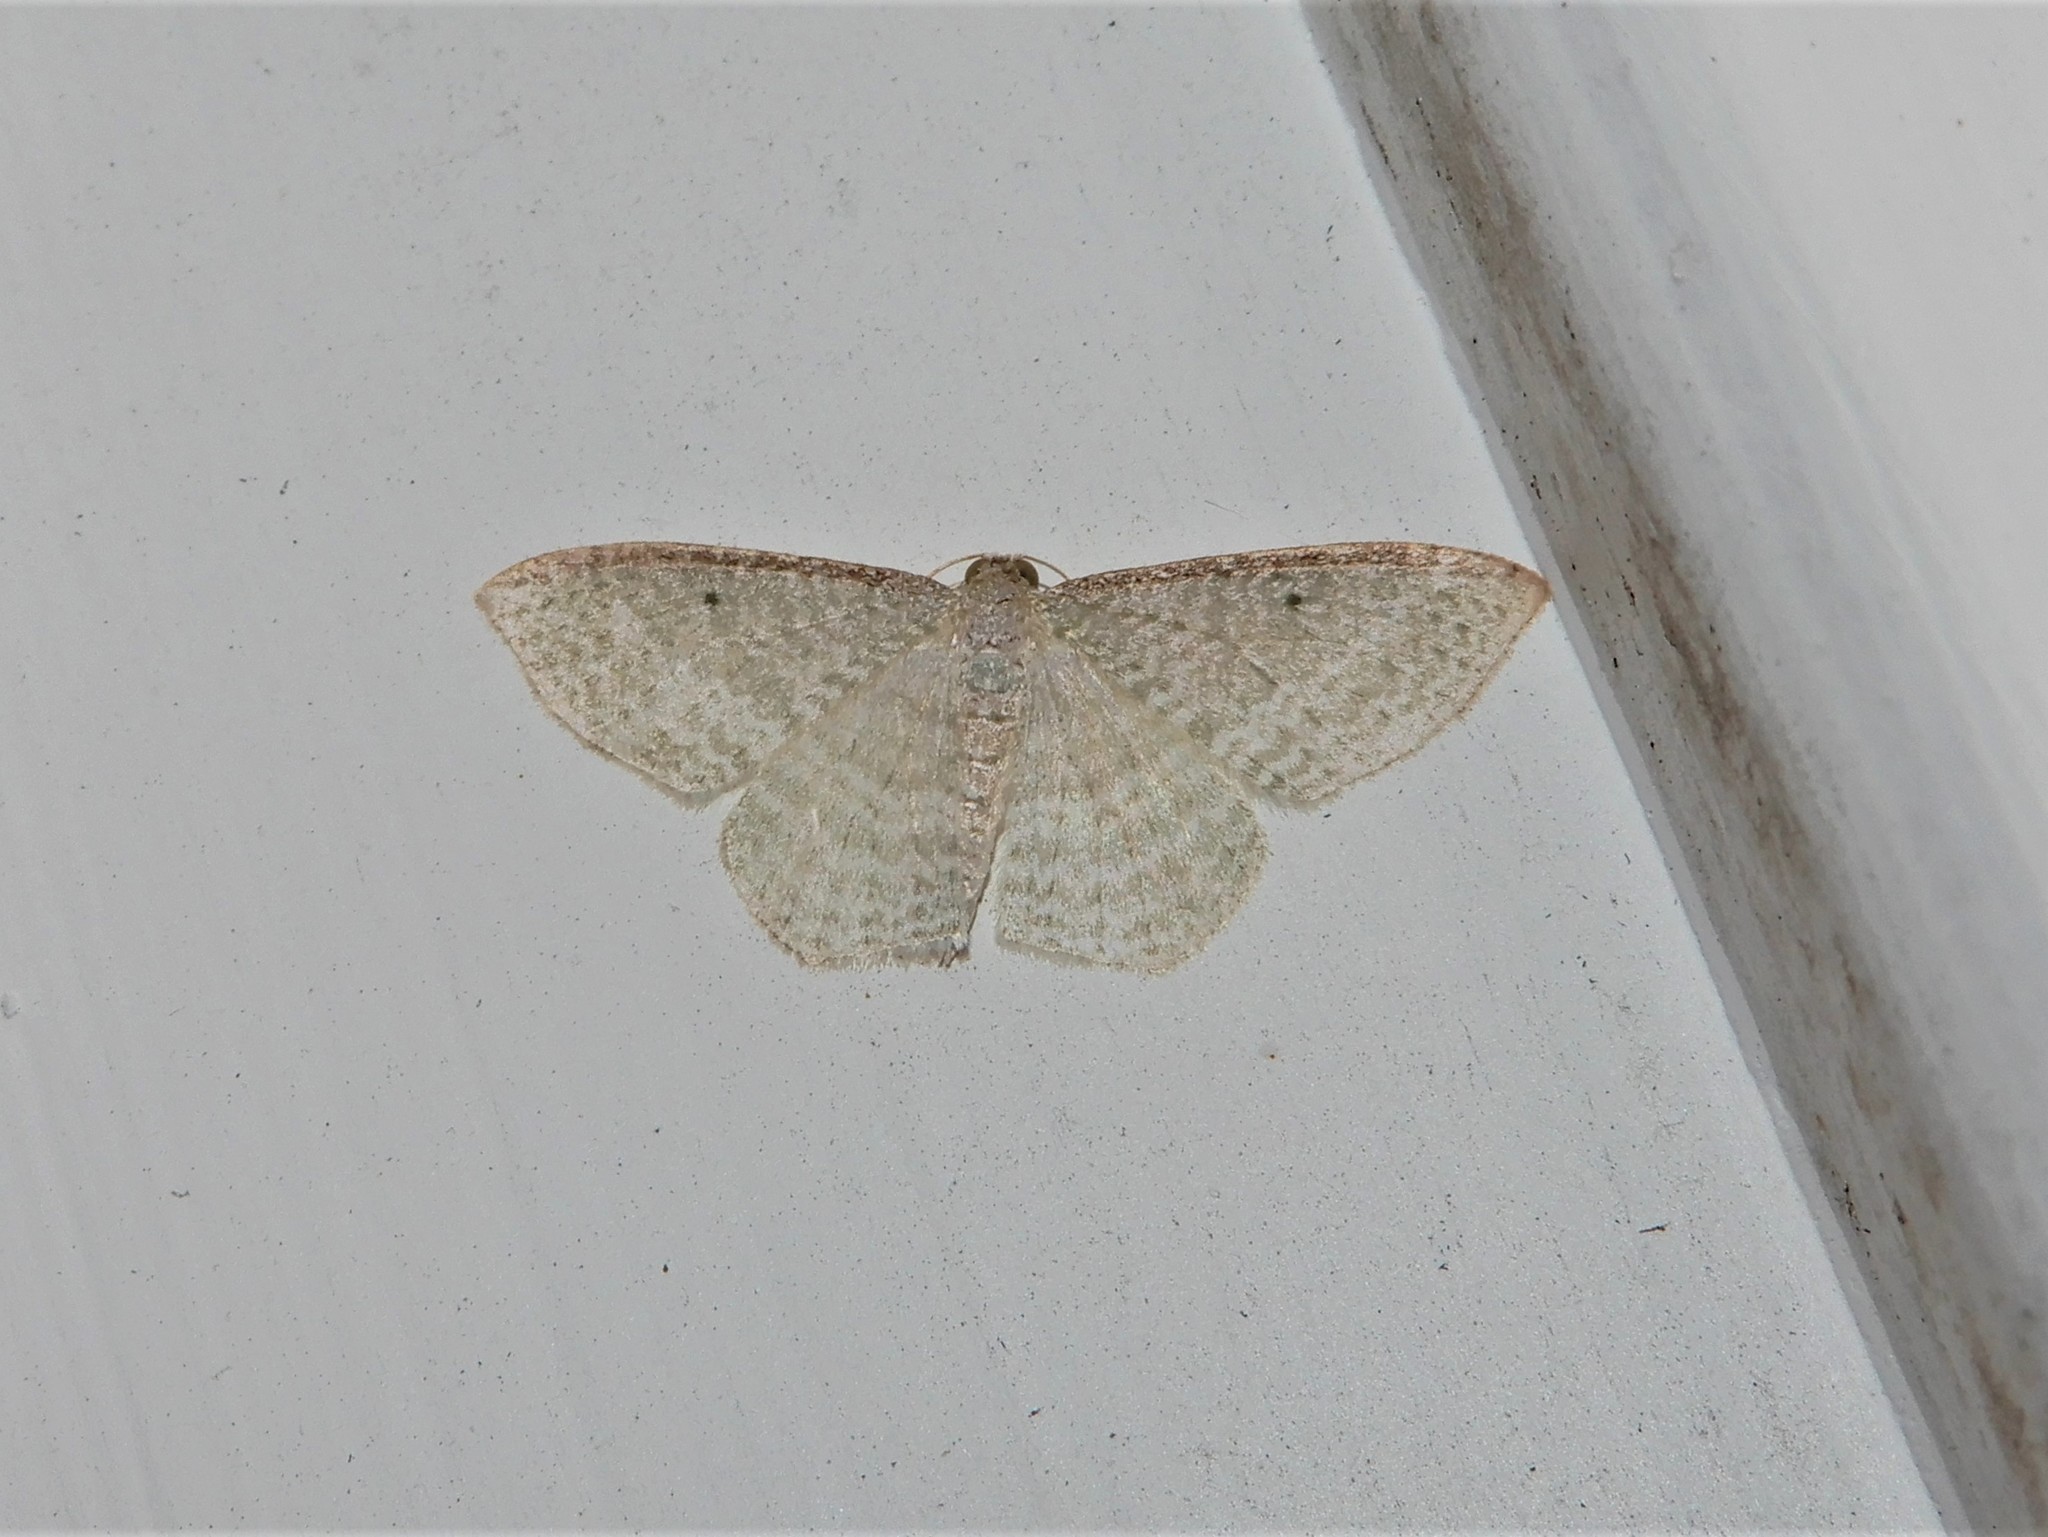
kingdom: Animalia
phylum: Arthropoda
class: Insecta
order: Lepidoptera
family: Geometridae
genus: Poecilasthena
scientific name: Poecilasthena pulchraria
